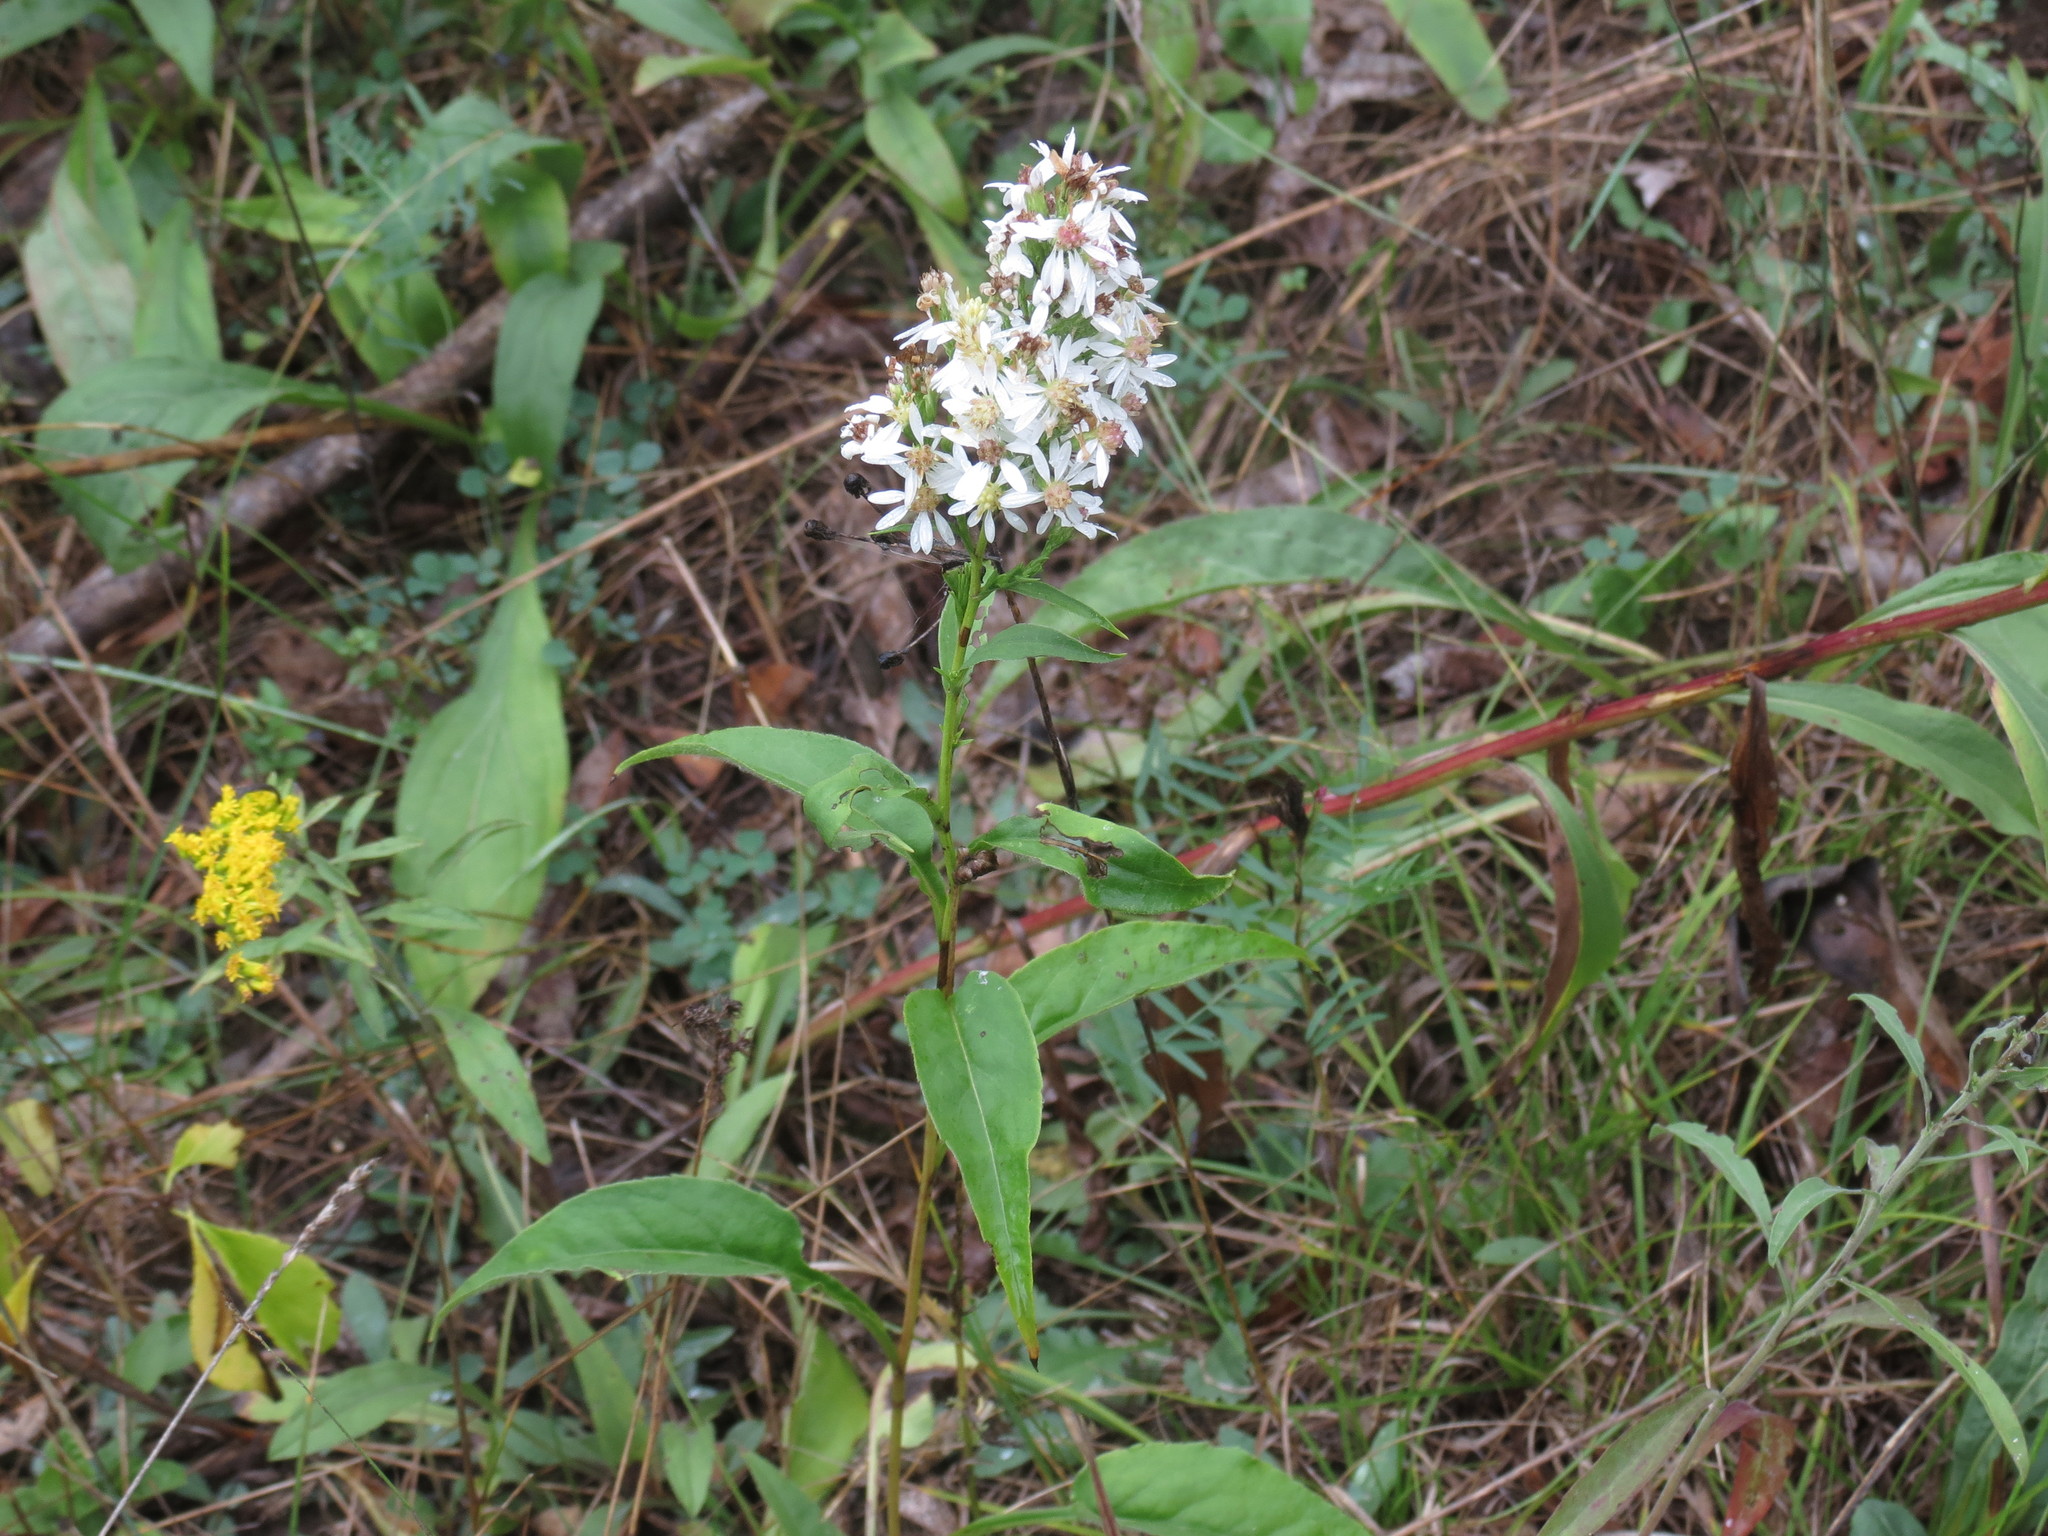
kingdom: Plantae
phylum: Tracheophyta
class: Magnoliopsida
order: Asterales
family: Asteraceae
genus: Symphyotrichum
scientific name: Symphyotrichum urophyllum
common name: Arrow-leaved aster
